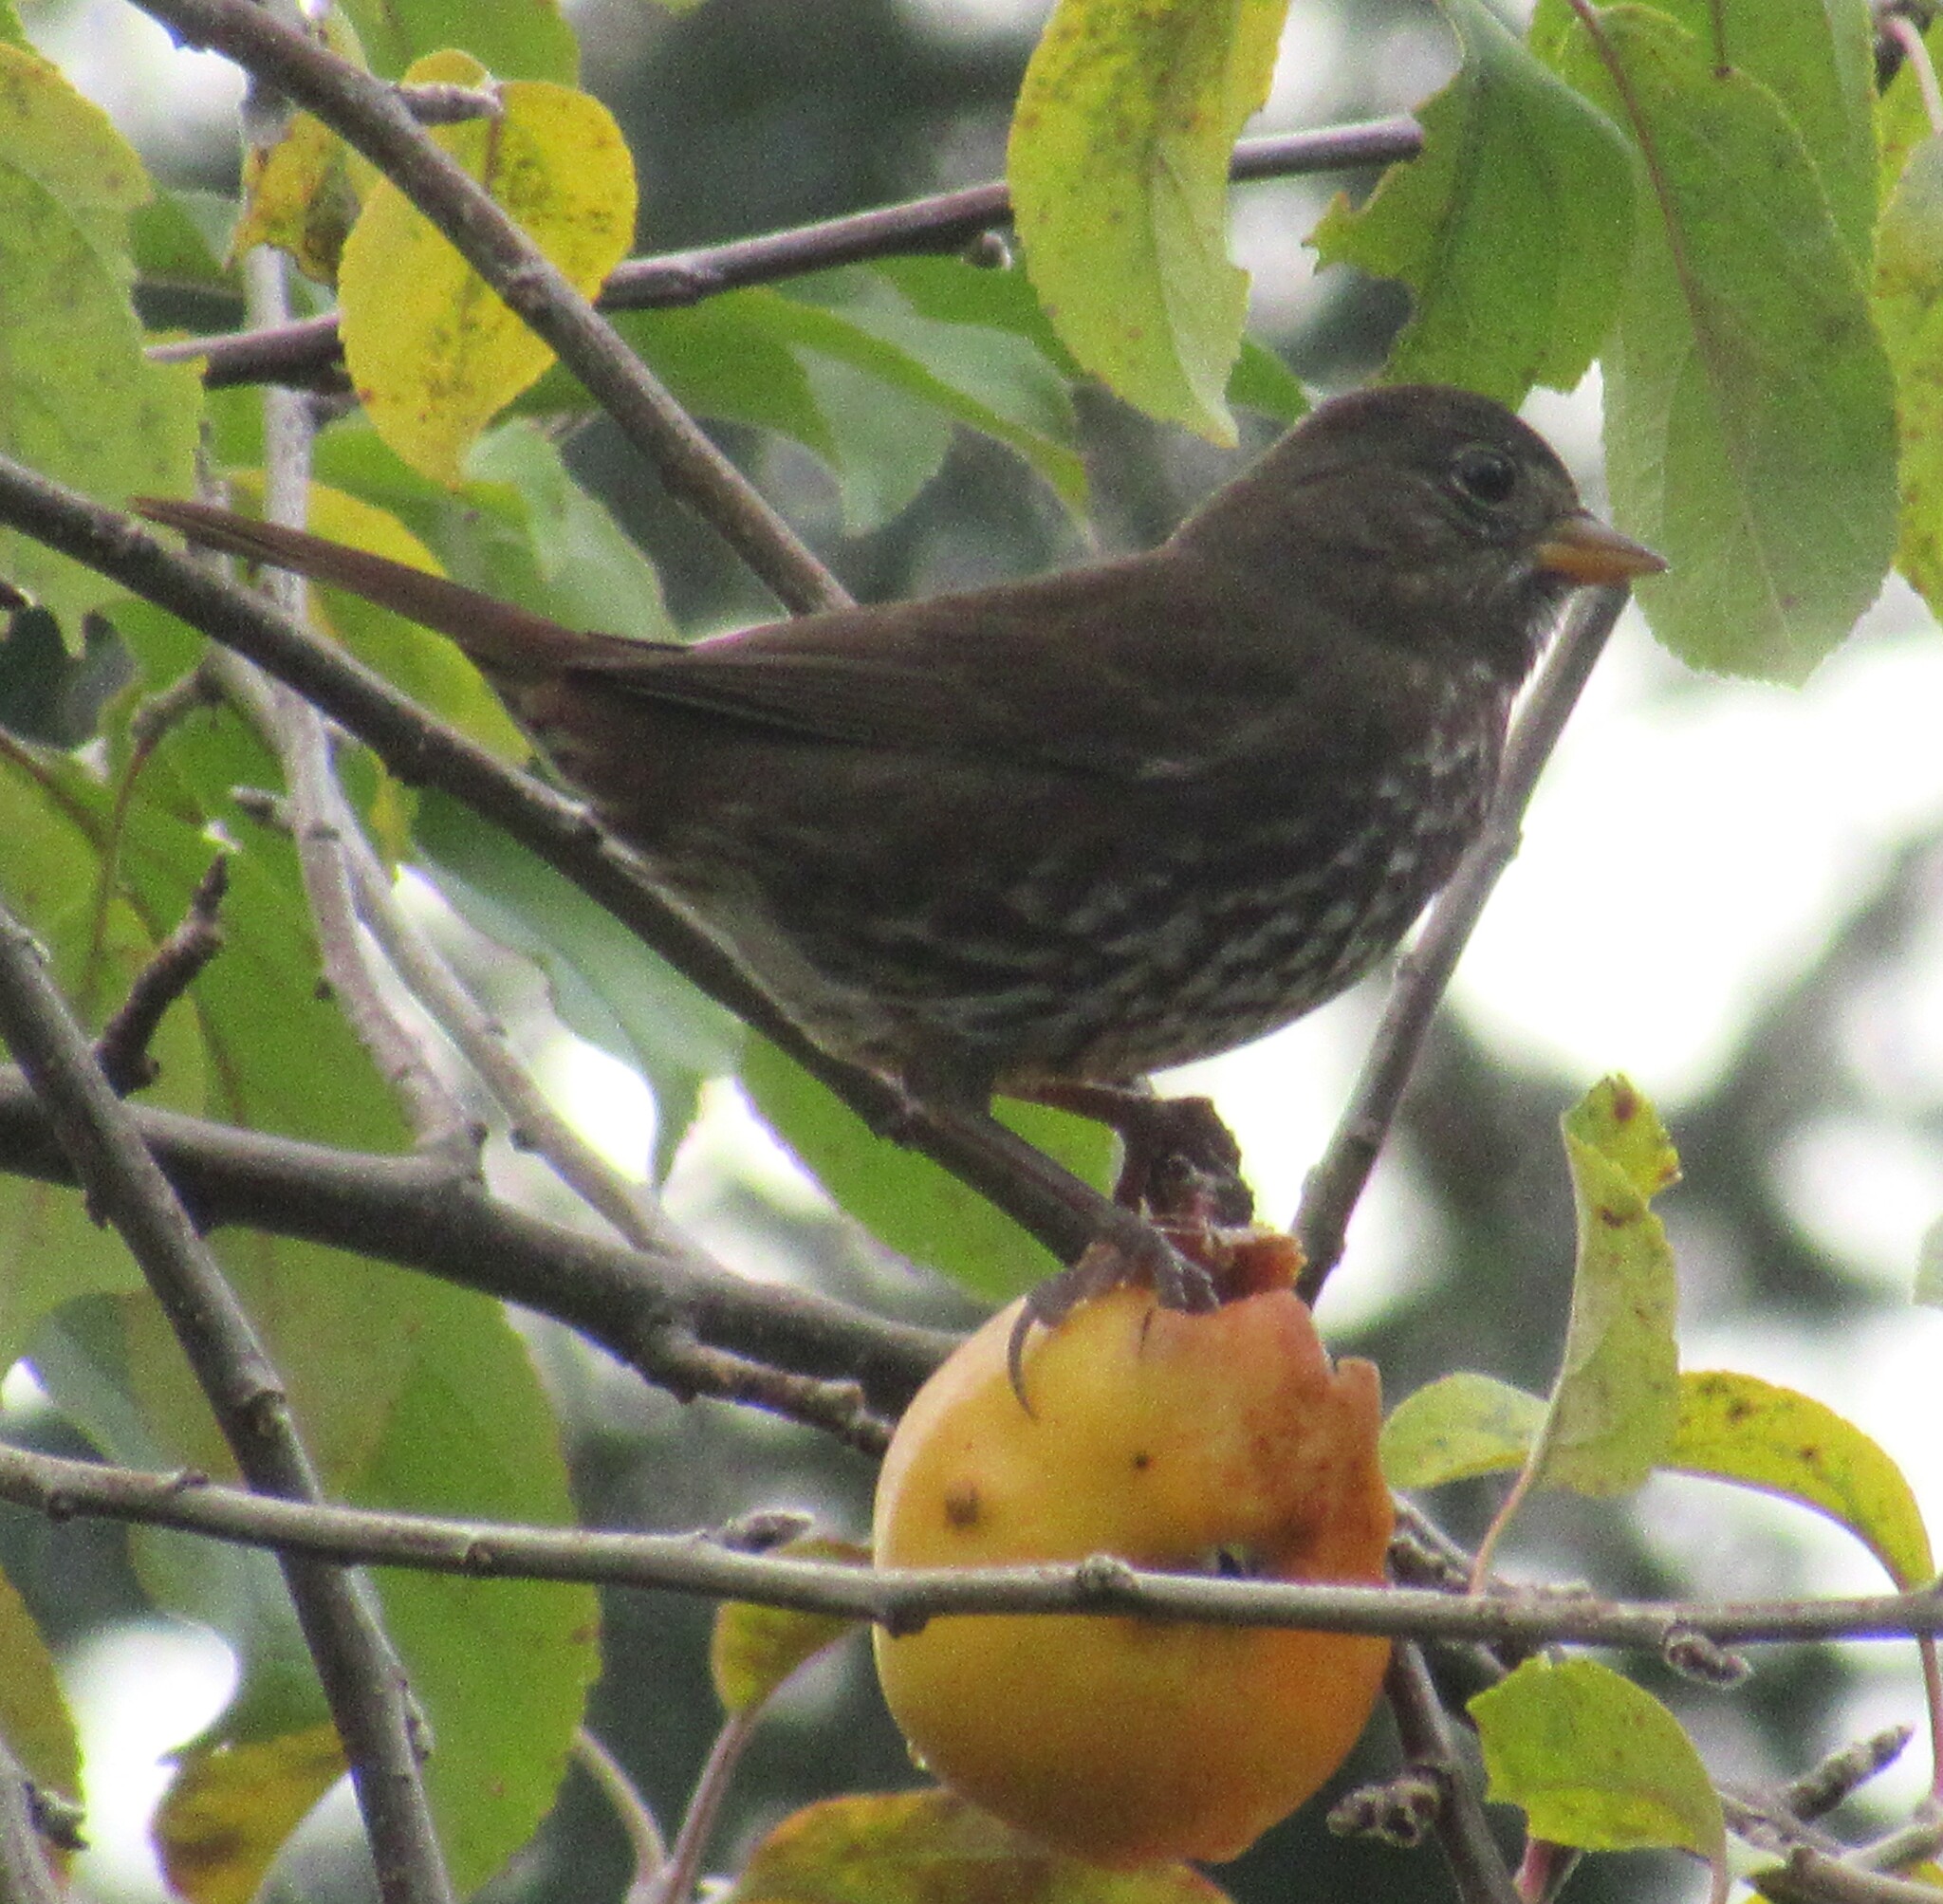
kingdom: Animalia
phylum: Chordata
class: Aves
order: Passeriformes
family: Passerellidae
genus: Passerella
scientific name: Passerella iliaca
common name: Fox sparrow
